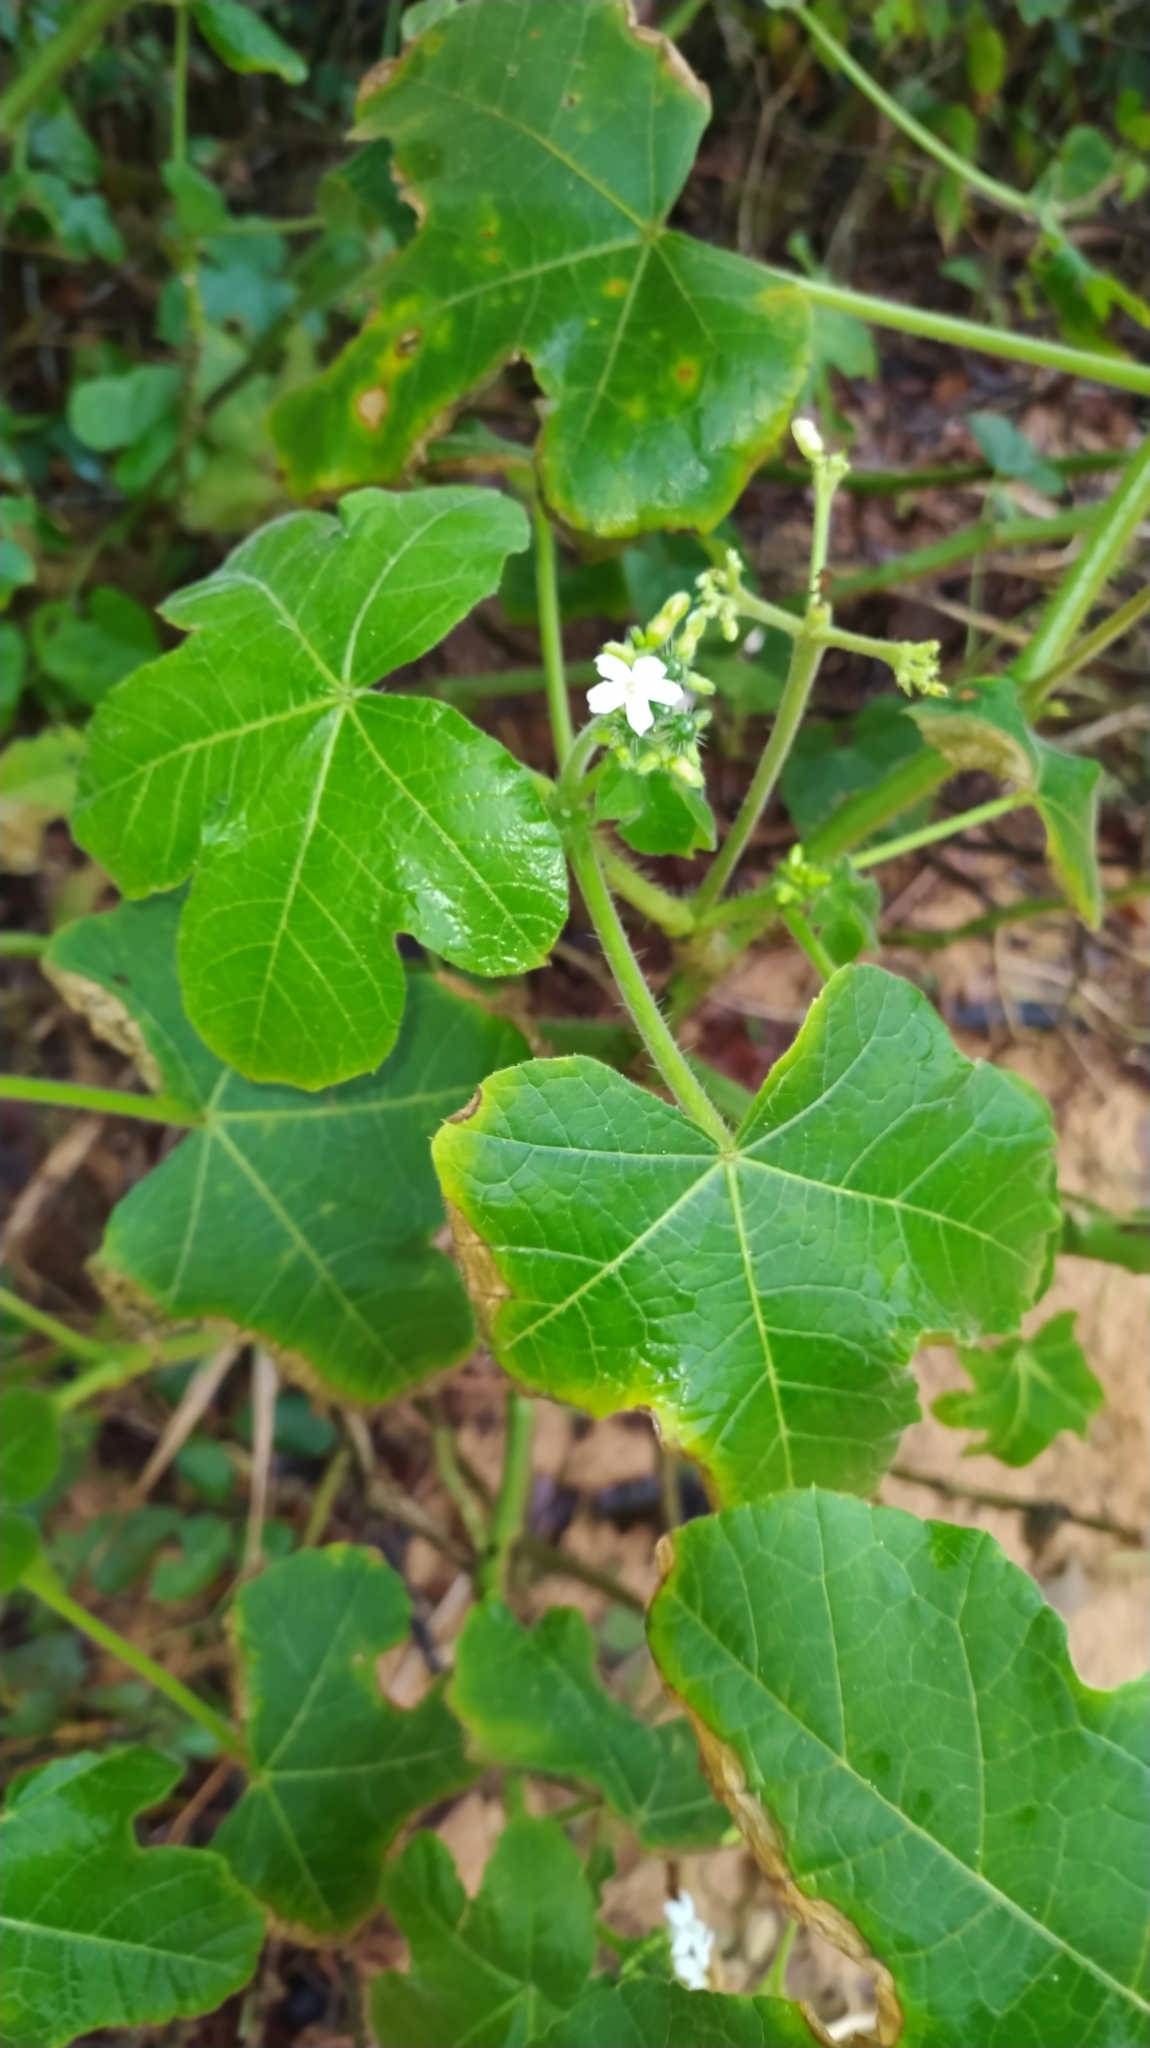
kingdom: Plantae
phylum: Tracheophyta
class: Magnoliopsida
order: Malpighiales
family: Euphorbiaceae
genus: Cnidoscolus
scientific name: Cnidoscolus urens
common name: Bull-nettle
